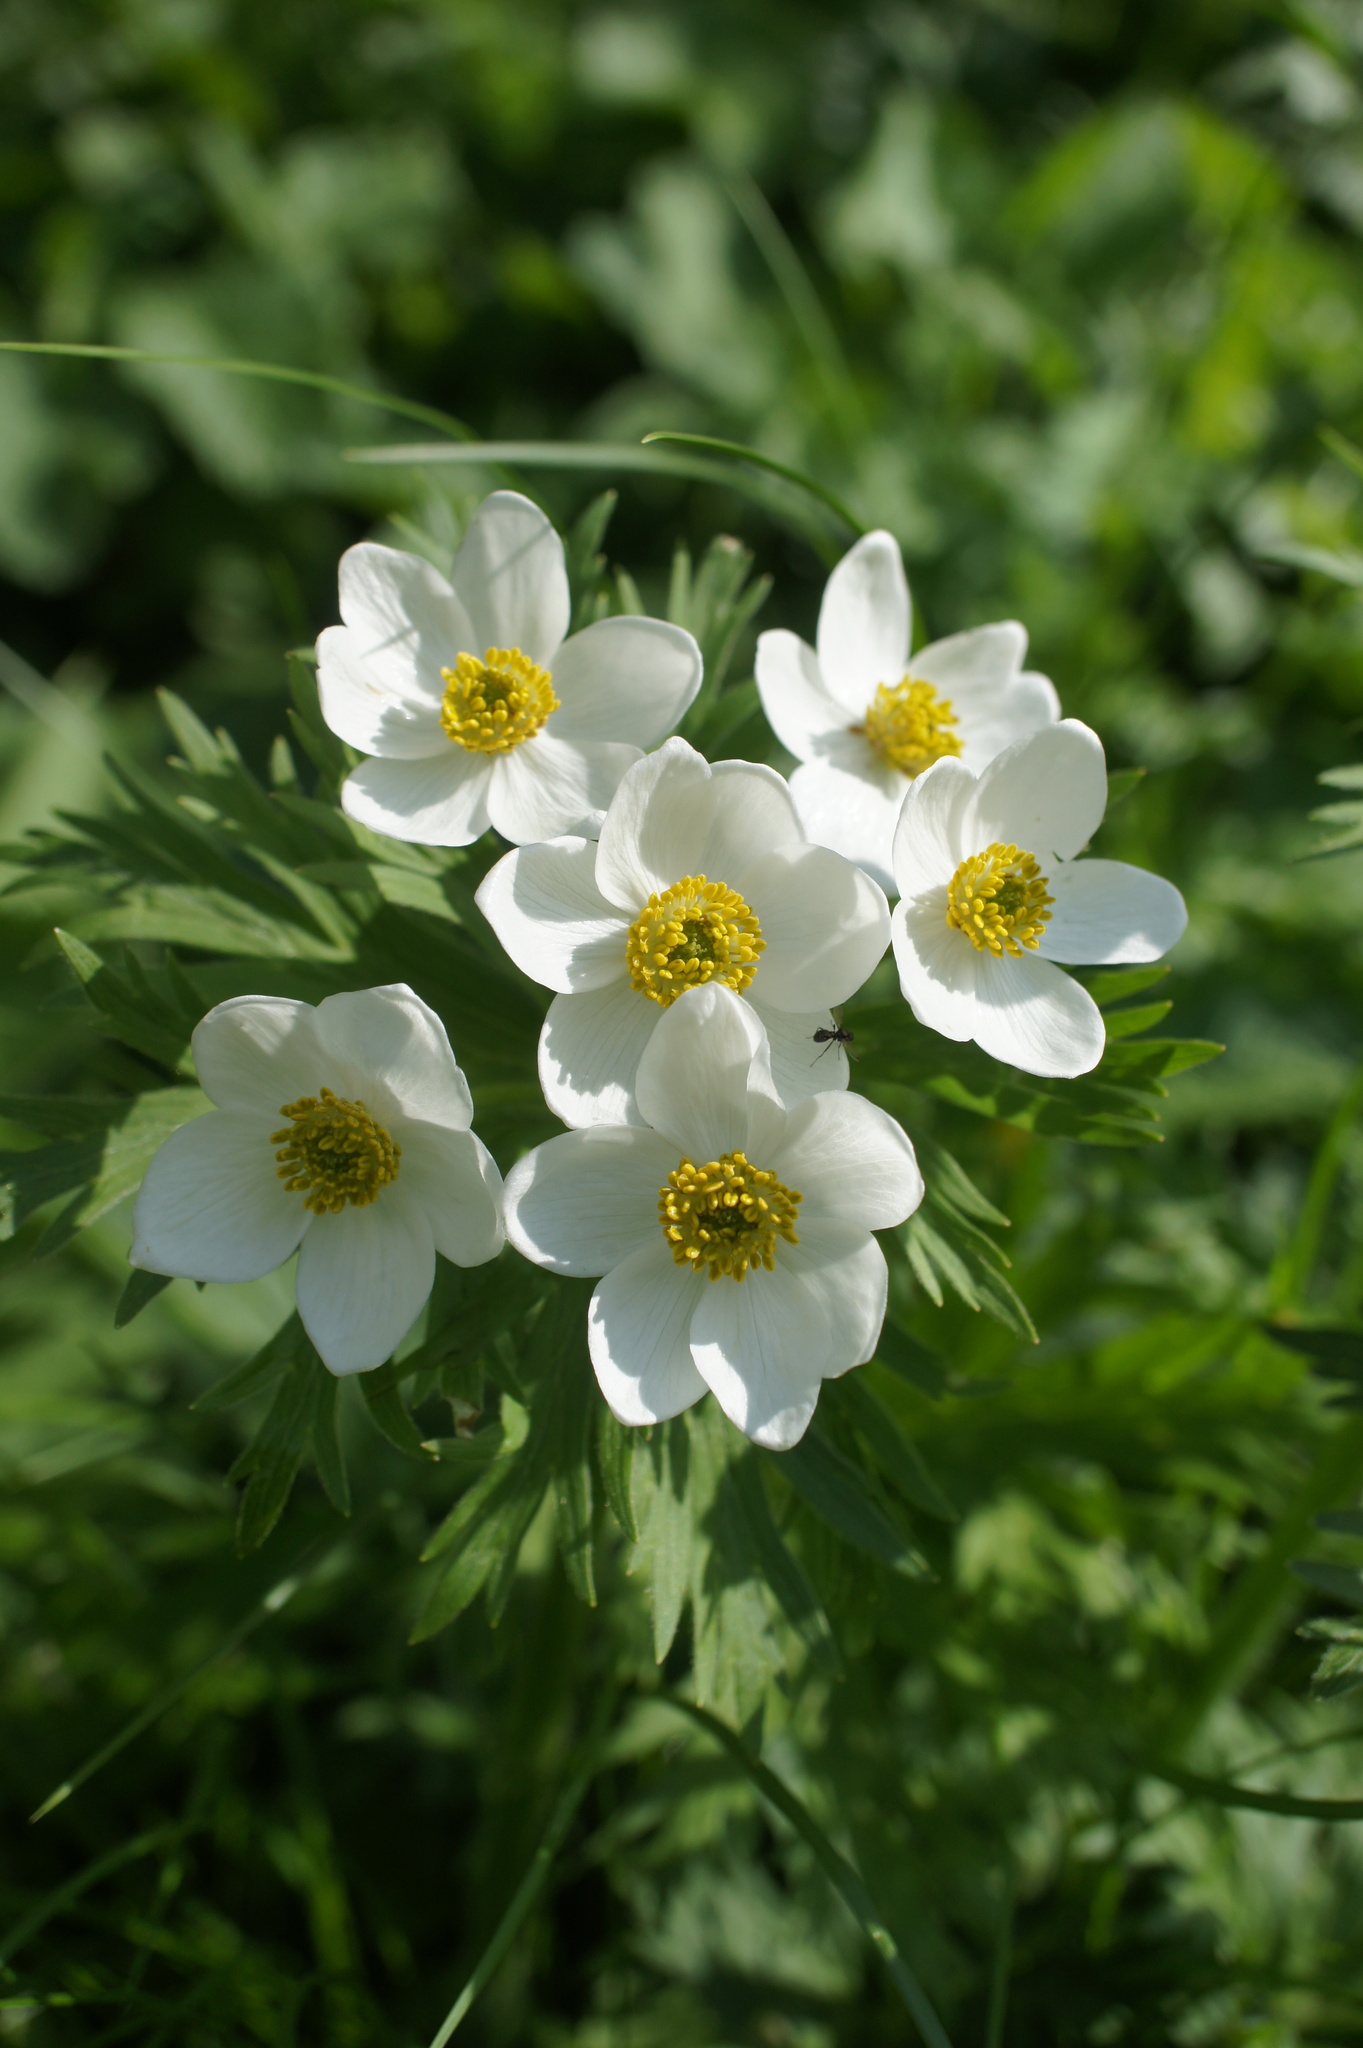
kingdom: Plantae
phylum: Tracheophyta
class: Magnoliopsida
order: Ranunculales
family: Ranunculaceae
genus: Anemonastrum
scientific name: Anemonastrum narcissiflorum
